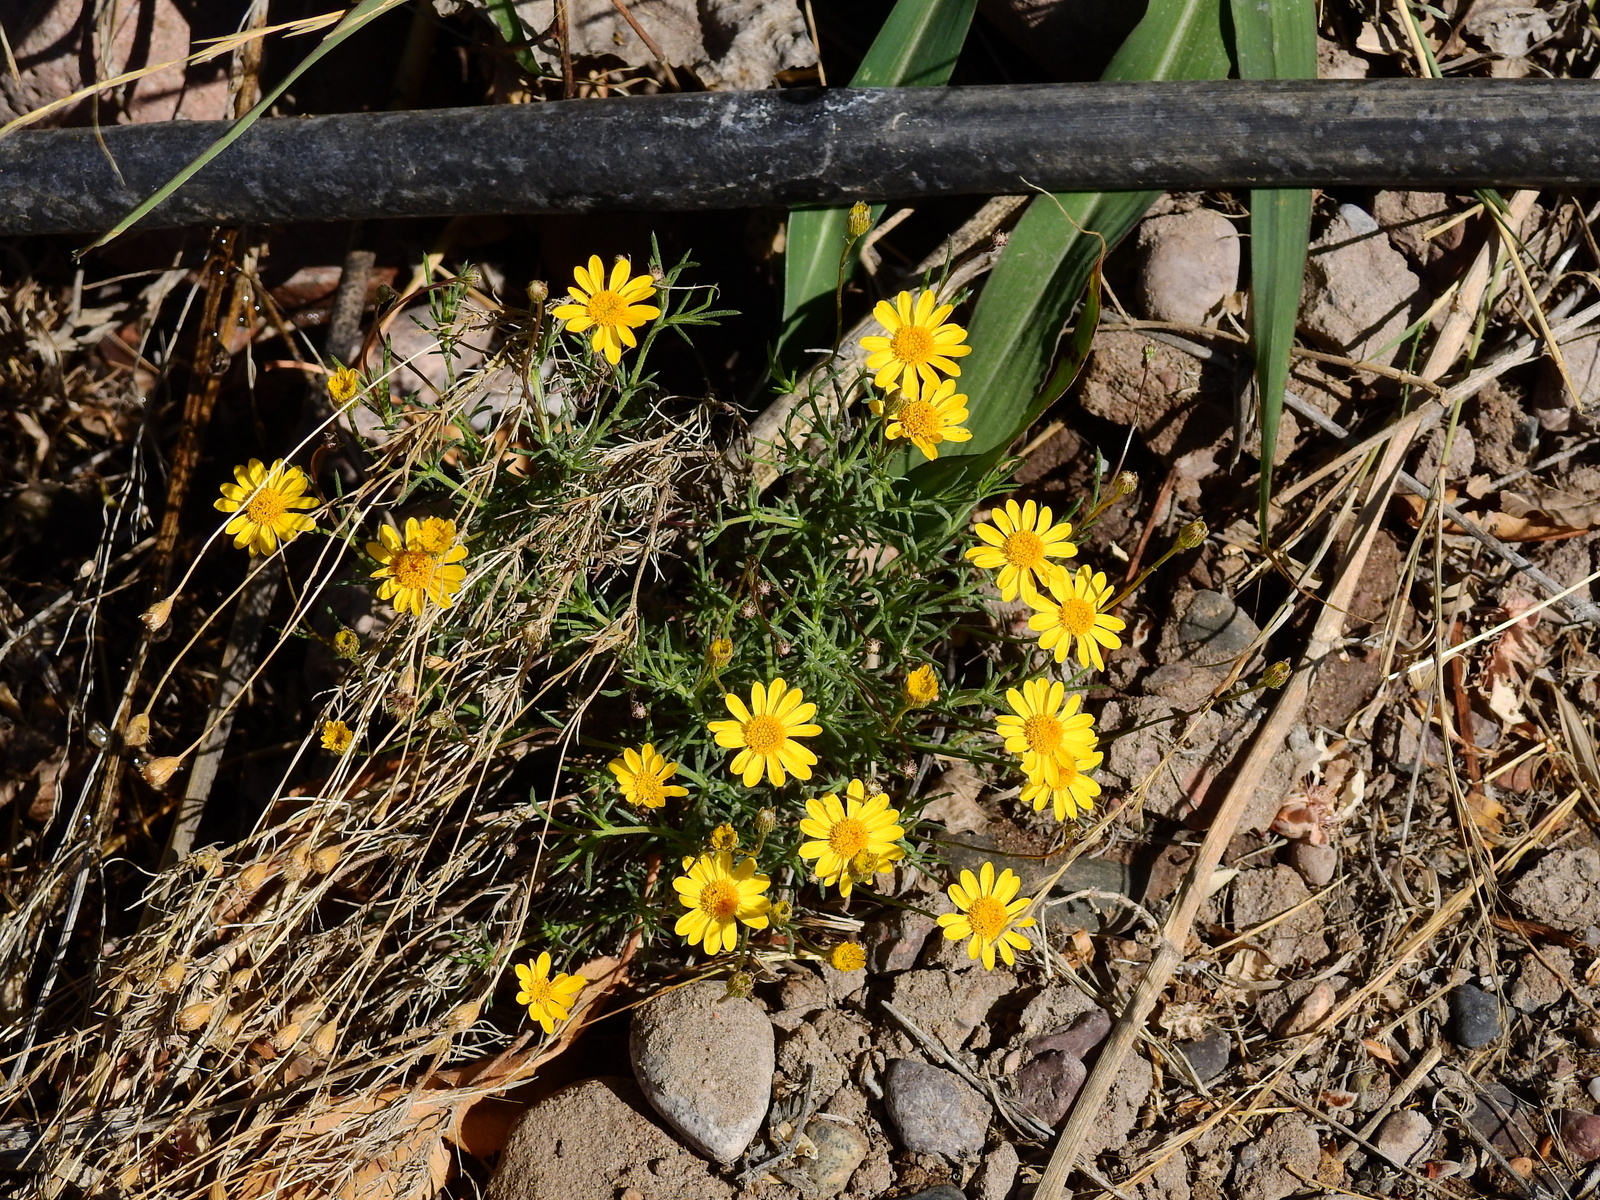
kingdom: Plantae
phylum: Tracheophyta
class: Magnoliopsida
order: Asterales
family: Asteraceae
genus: Thymophylla
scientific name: Thymophylla pentachaeta
